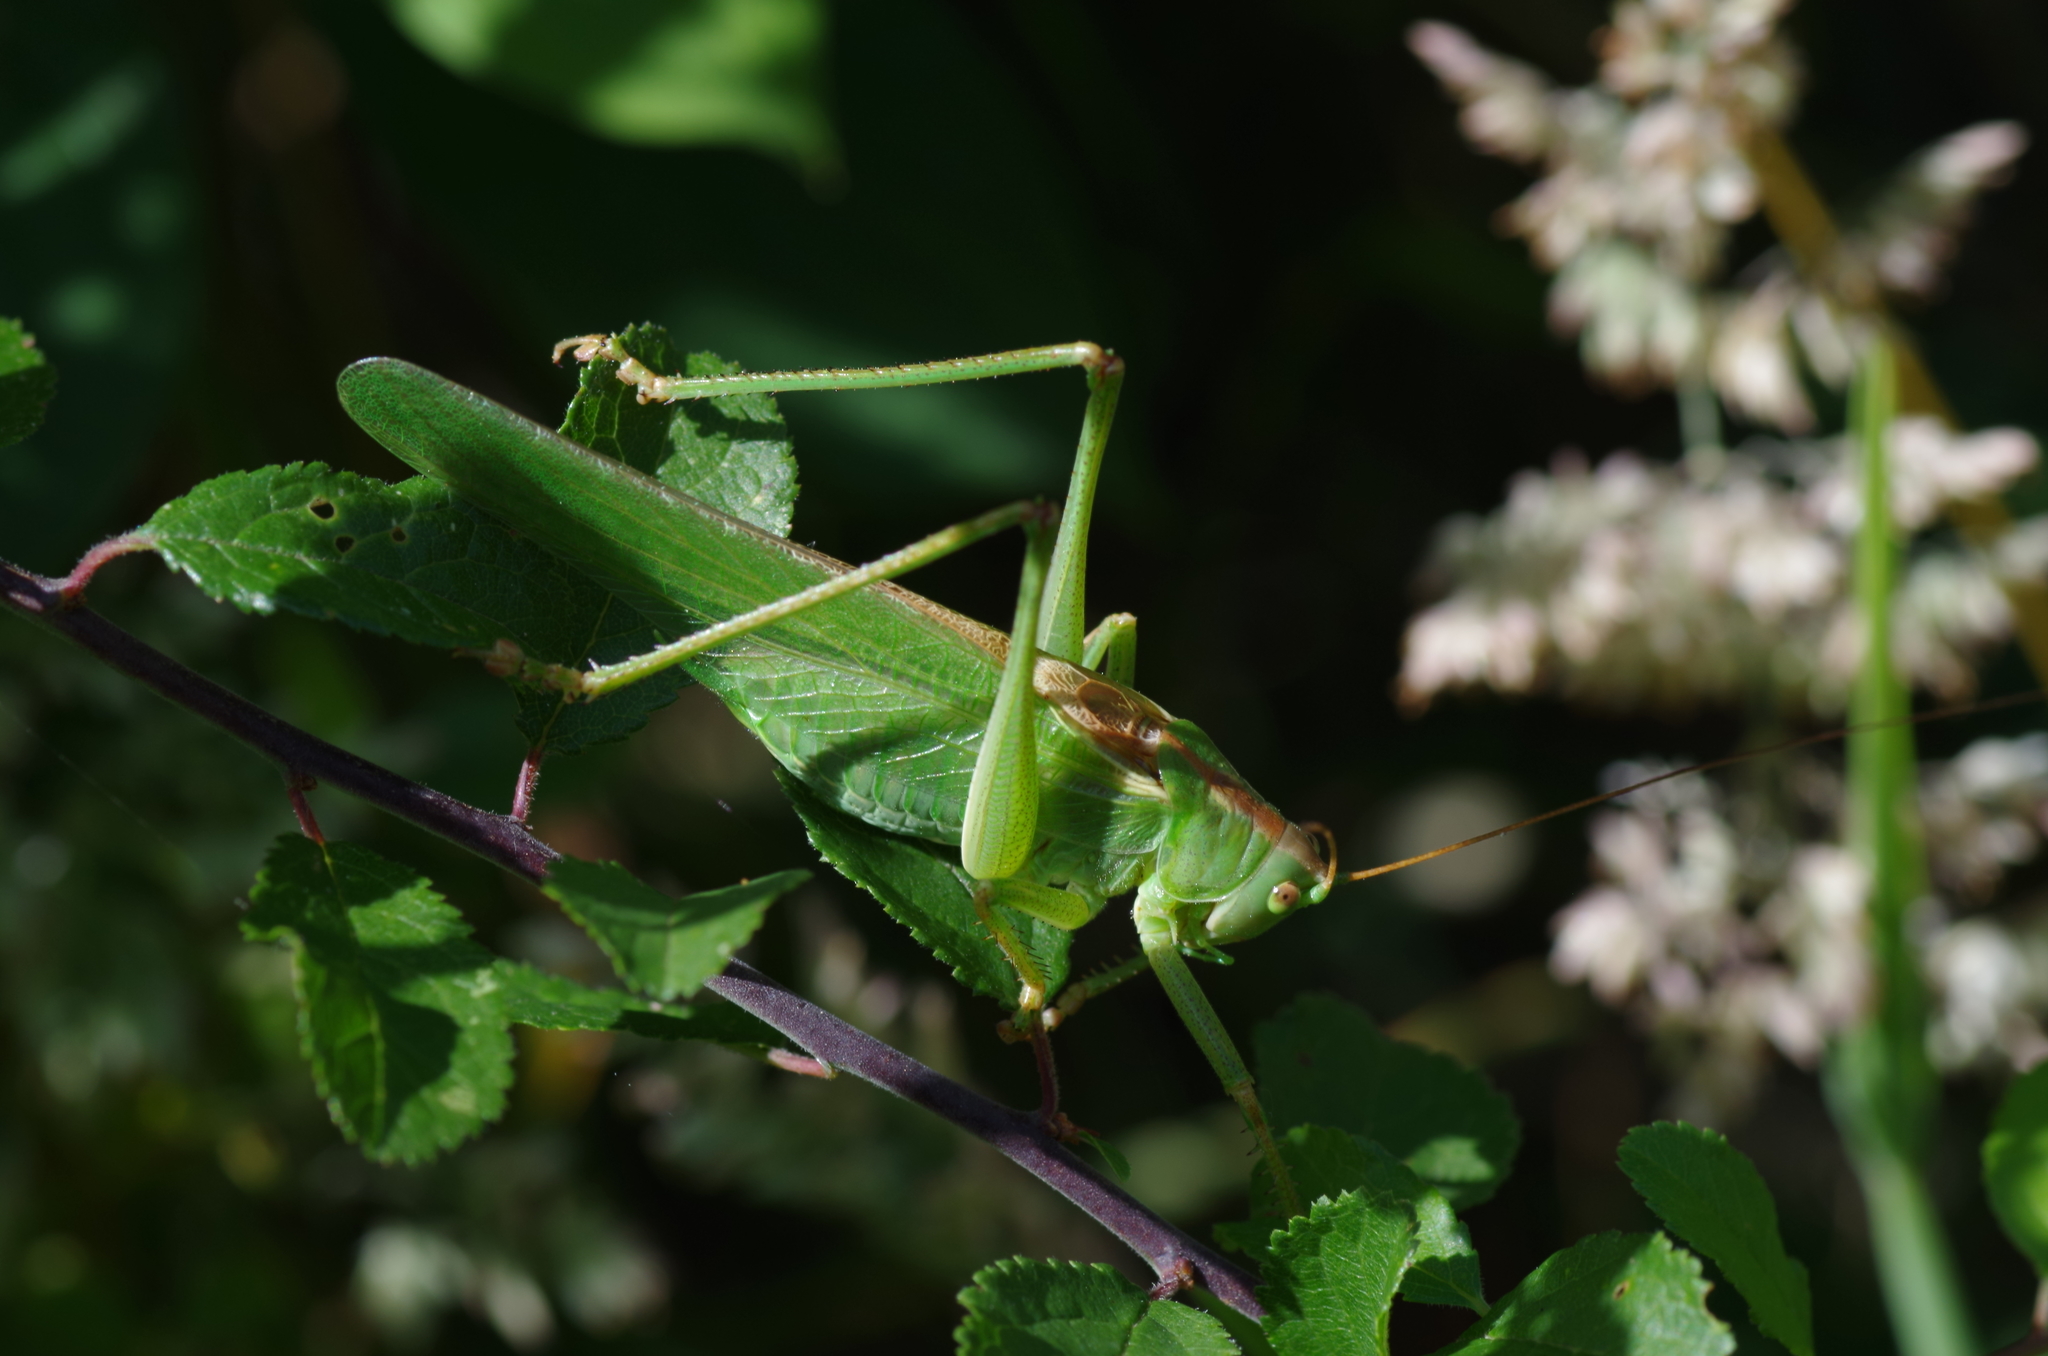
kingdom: Animalia
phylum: Arthropoda
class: Insecta
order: Orthoptera
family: Tettigoniidae
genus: Tettigonia
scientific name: Tettigonia viridissima
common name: Great green bush-cricket
